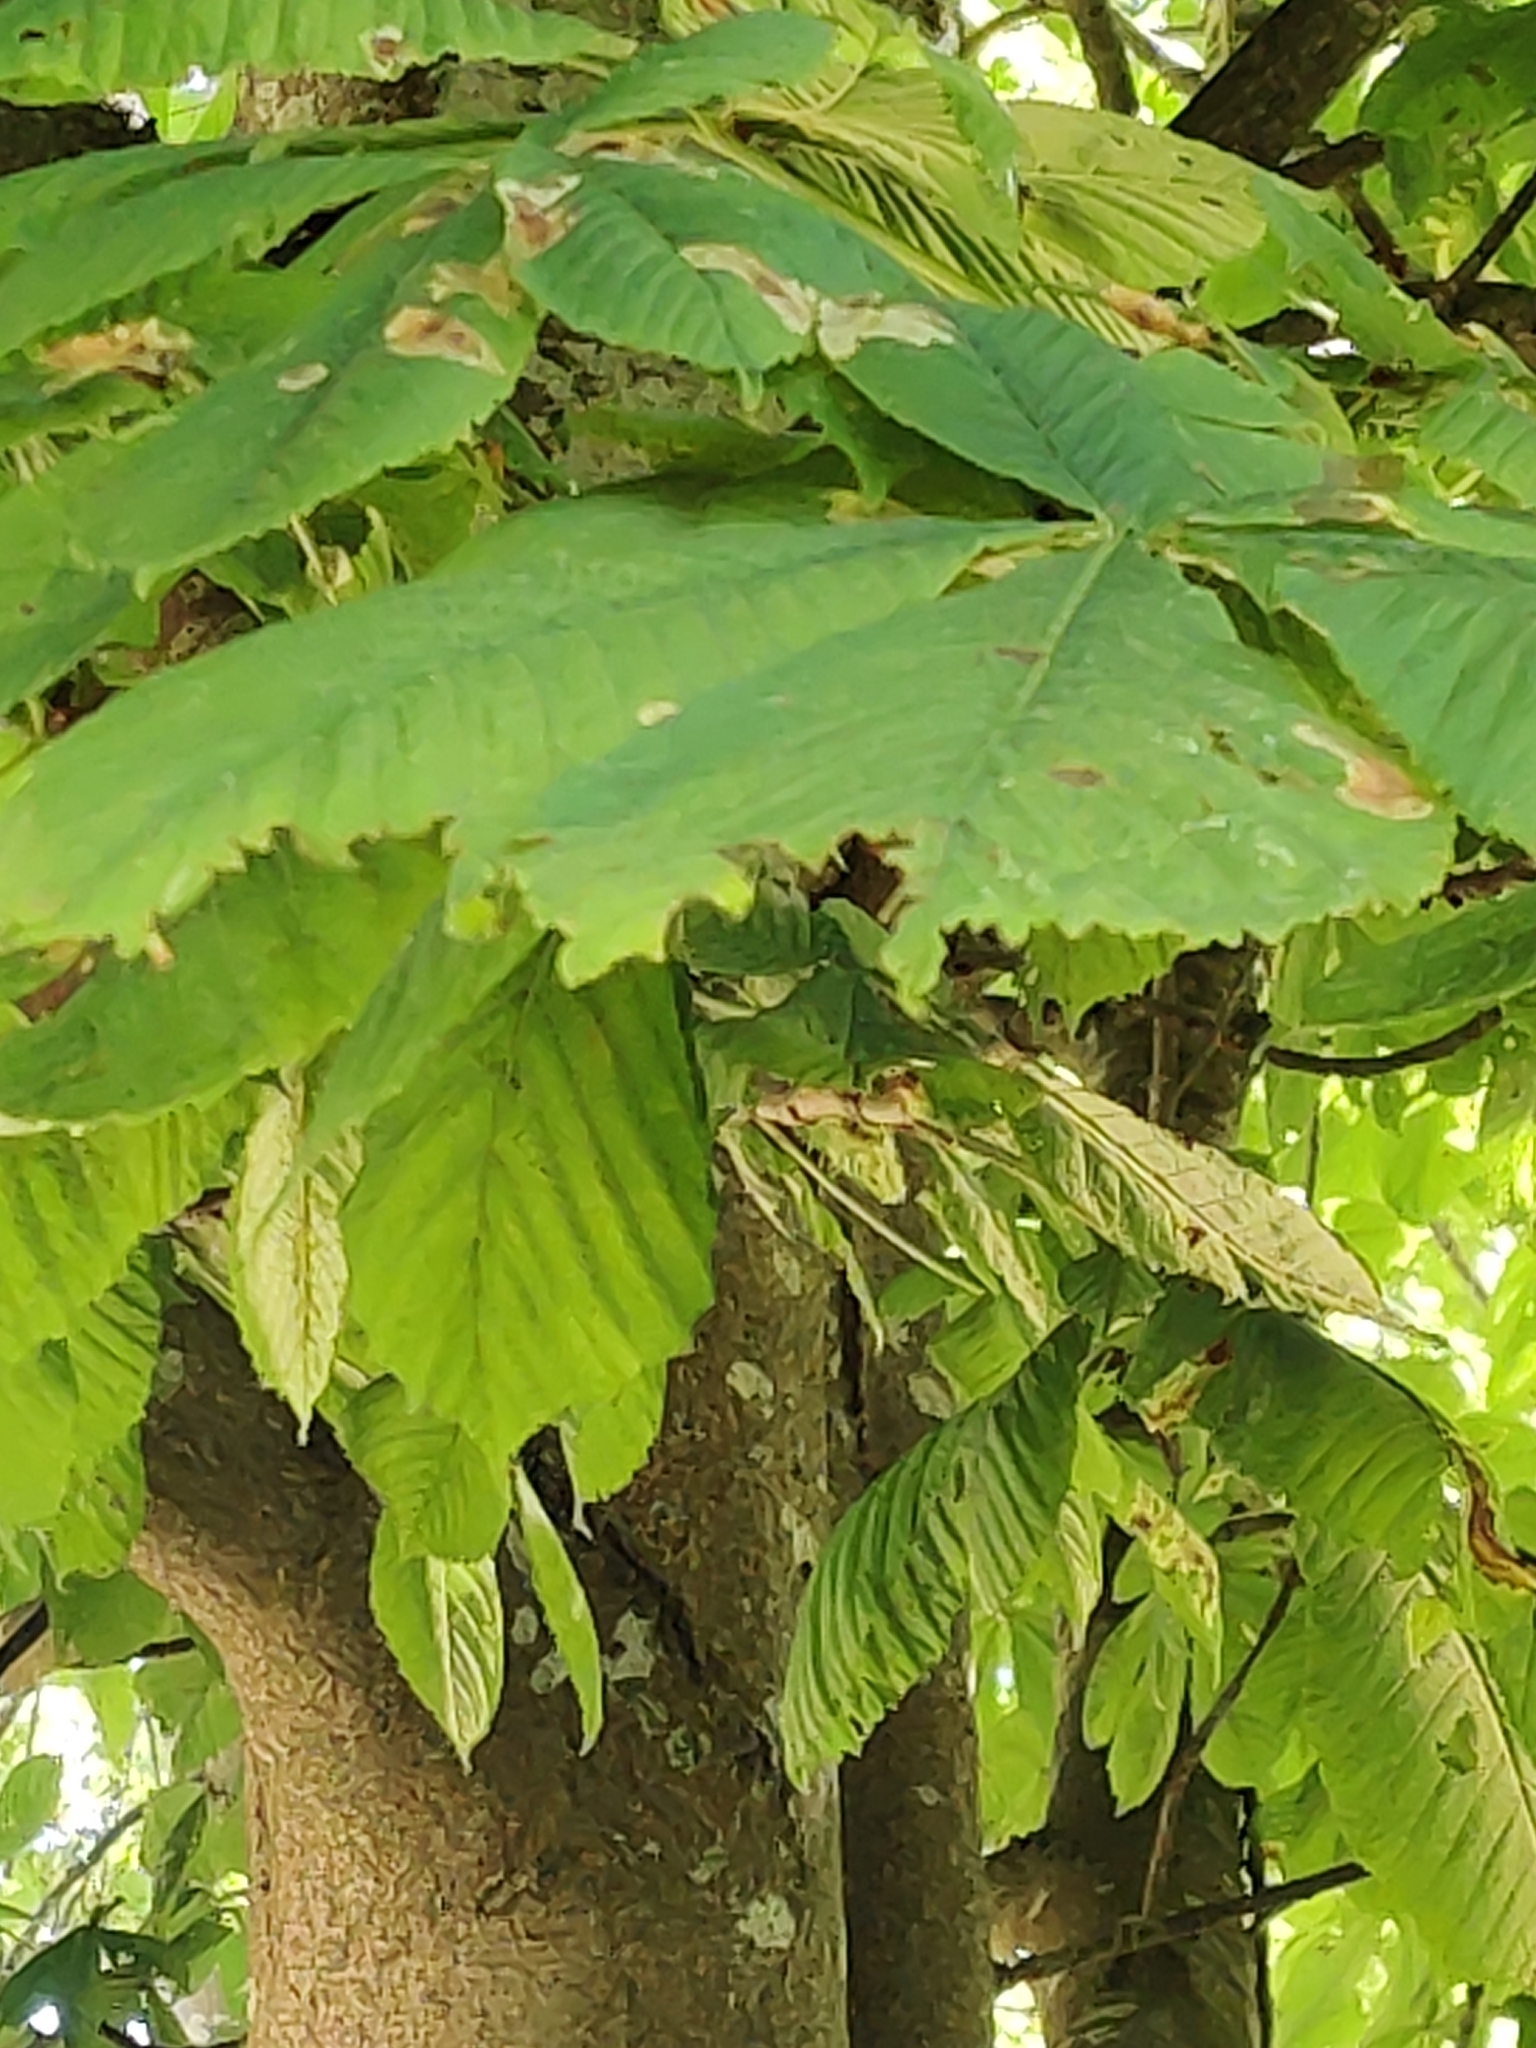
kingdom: Plantae
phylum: Tracheophyta
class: Magnoliopsida
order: Sapindales
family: Sapindaceae
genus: Aesculus
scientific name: Aesculus hippocastanum
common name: Horse-chestnut
